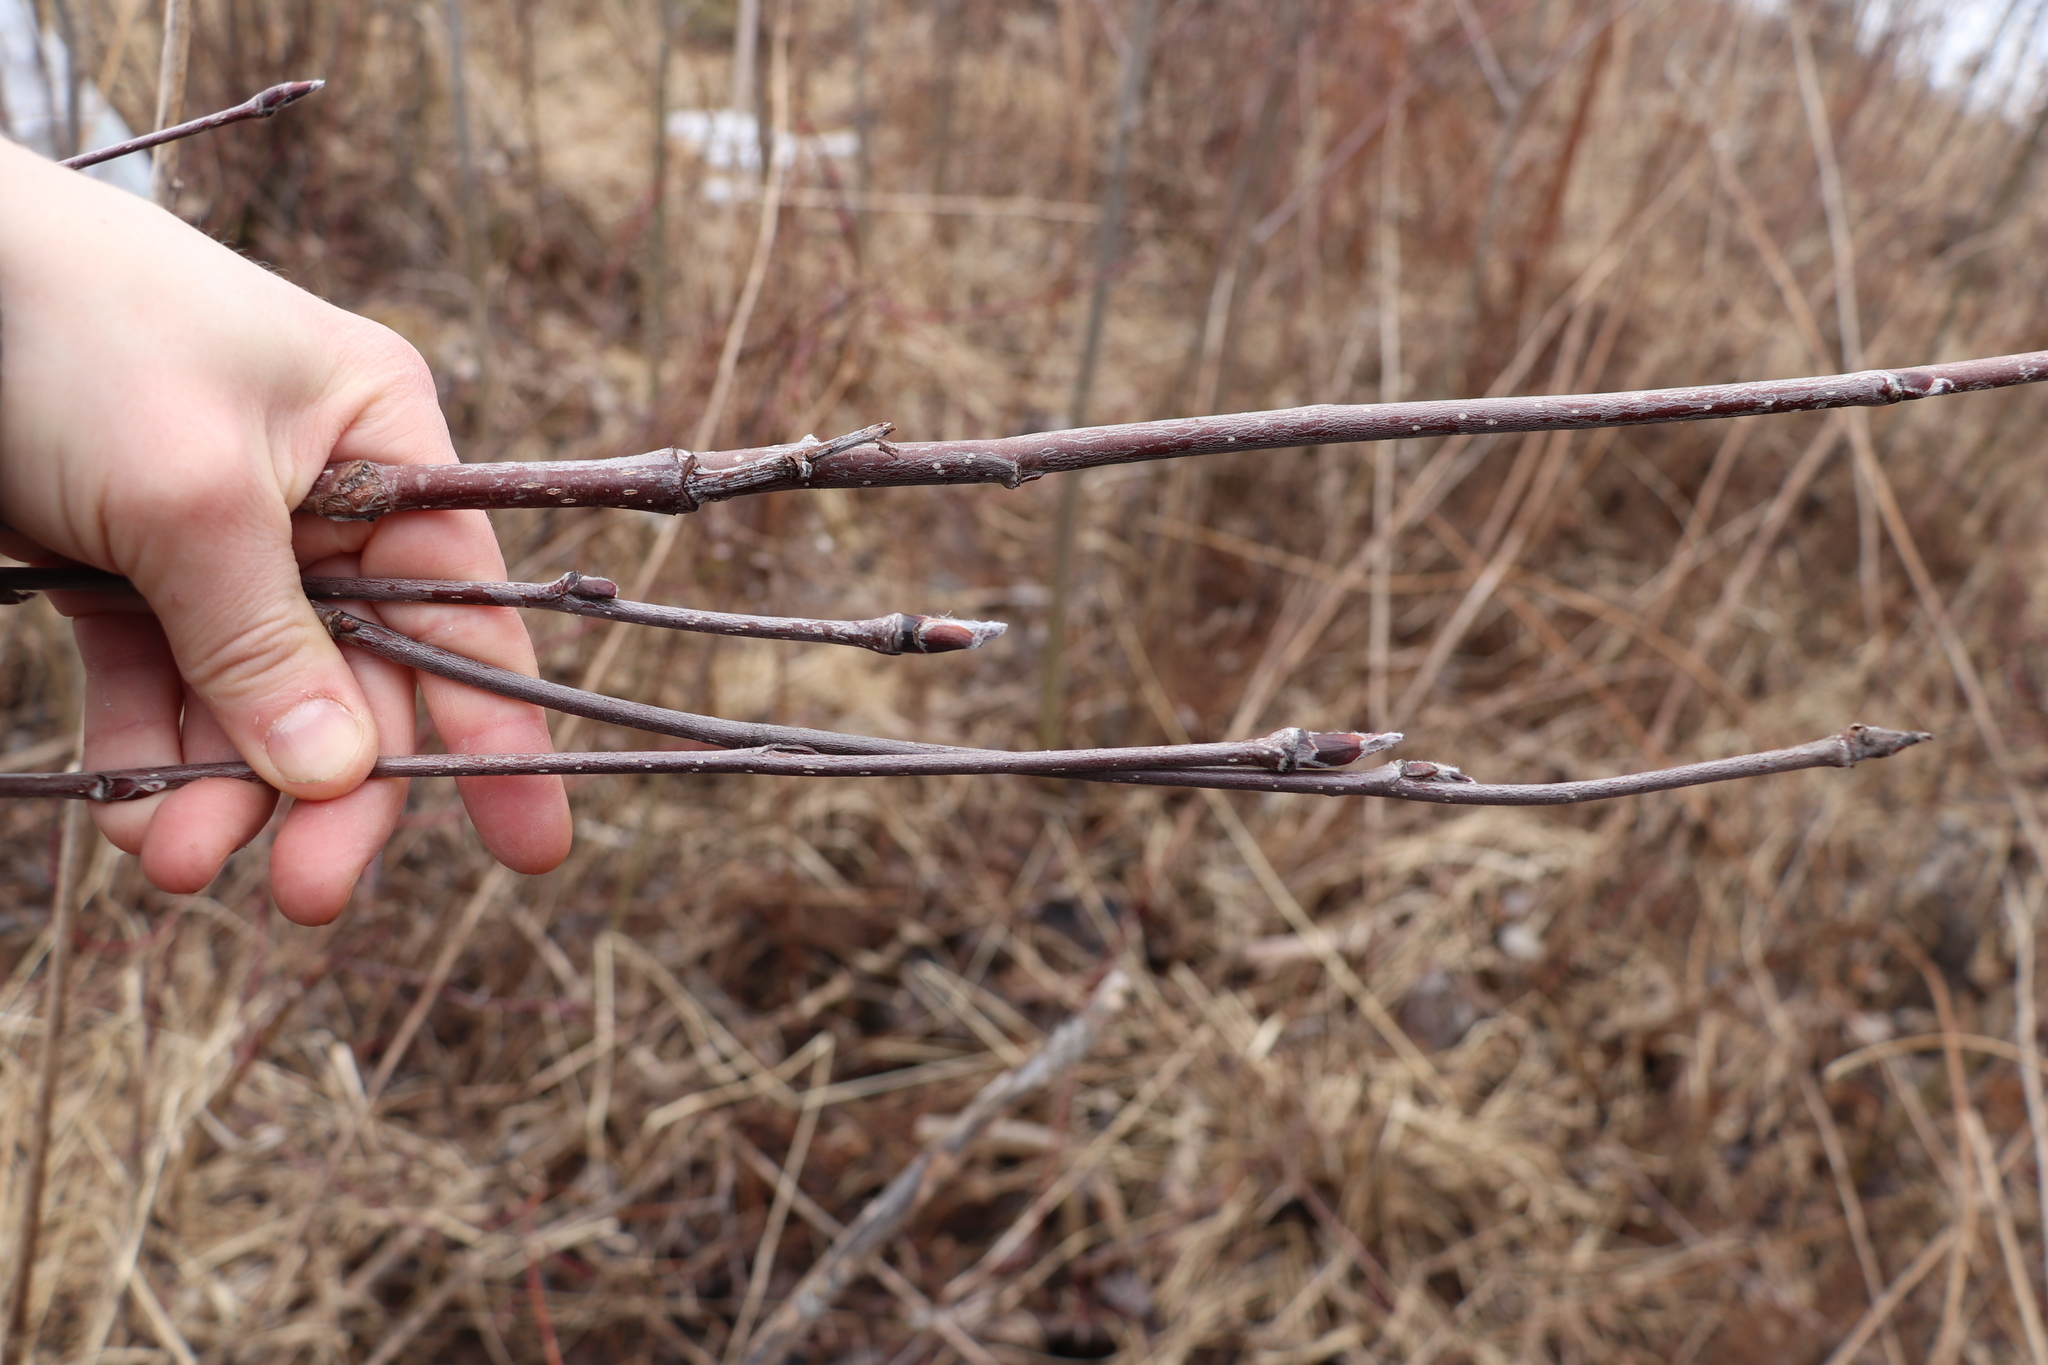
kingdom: Plantae
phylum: Tracheophyta
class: Magnoliopsida
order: Rosales
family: Rosaceae
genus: Sorbus
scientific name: Sorbus aucuparia
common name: Rowan
